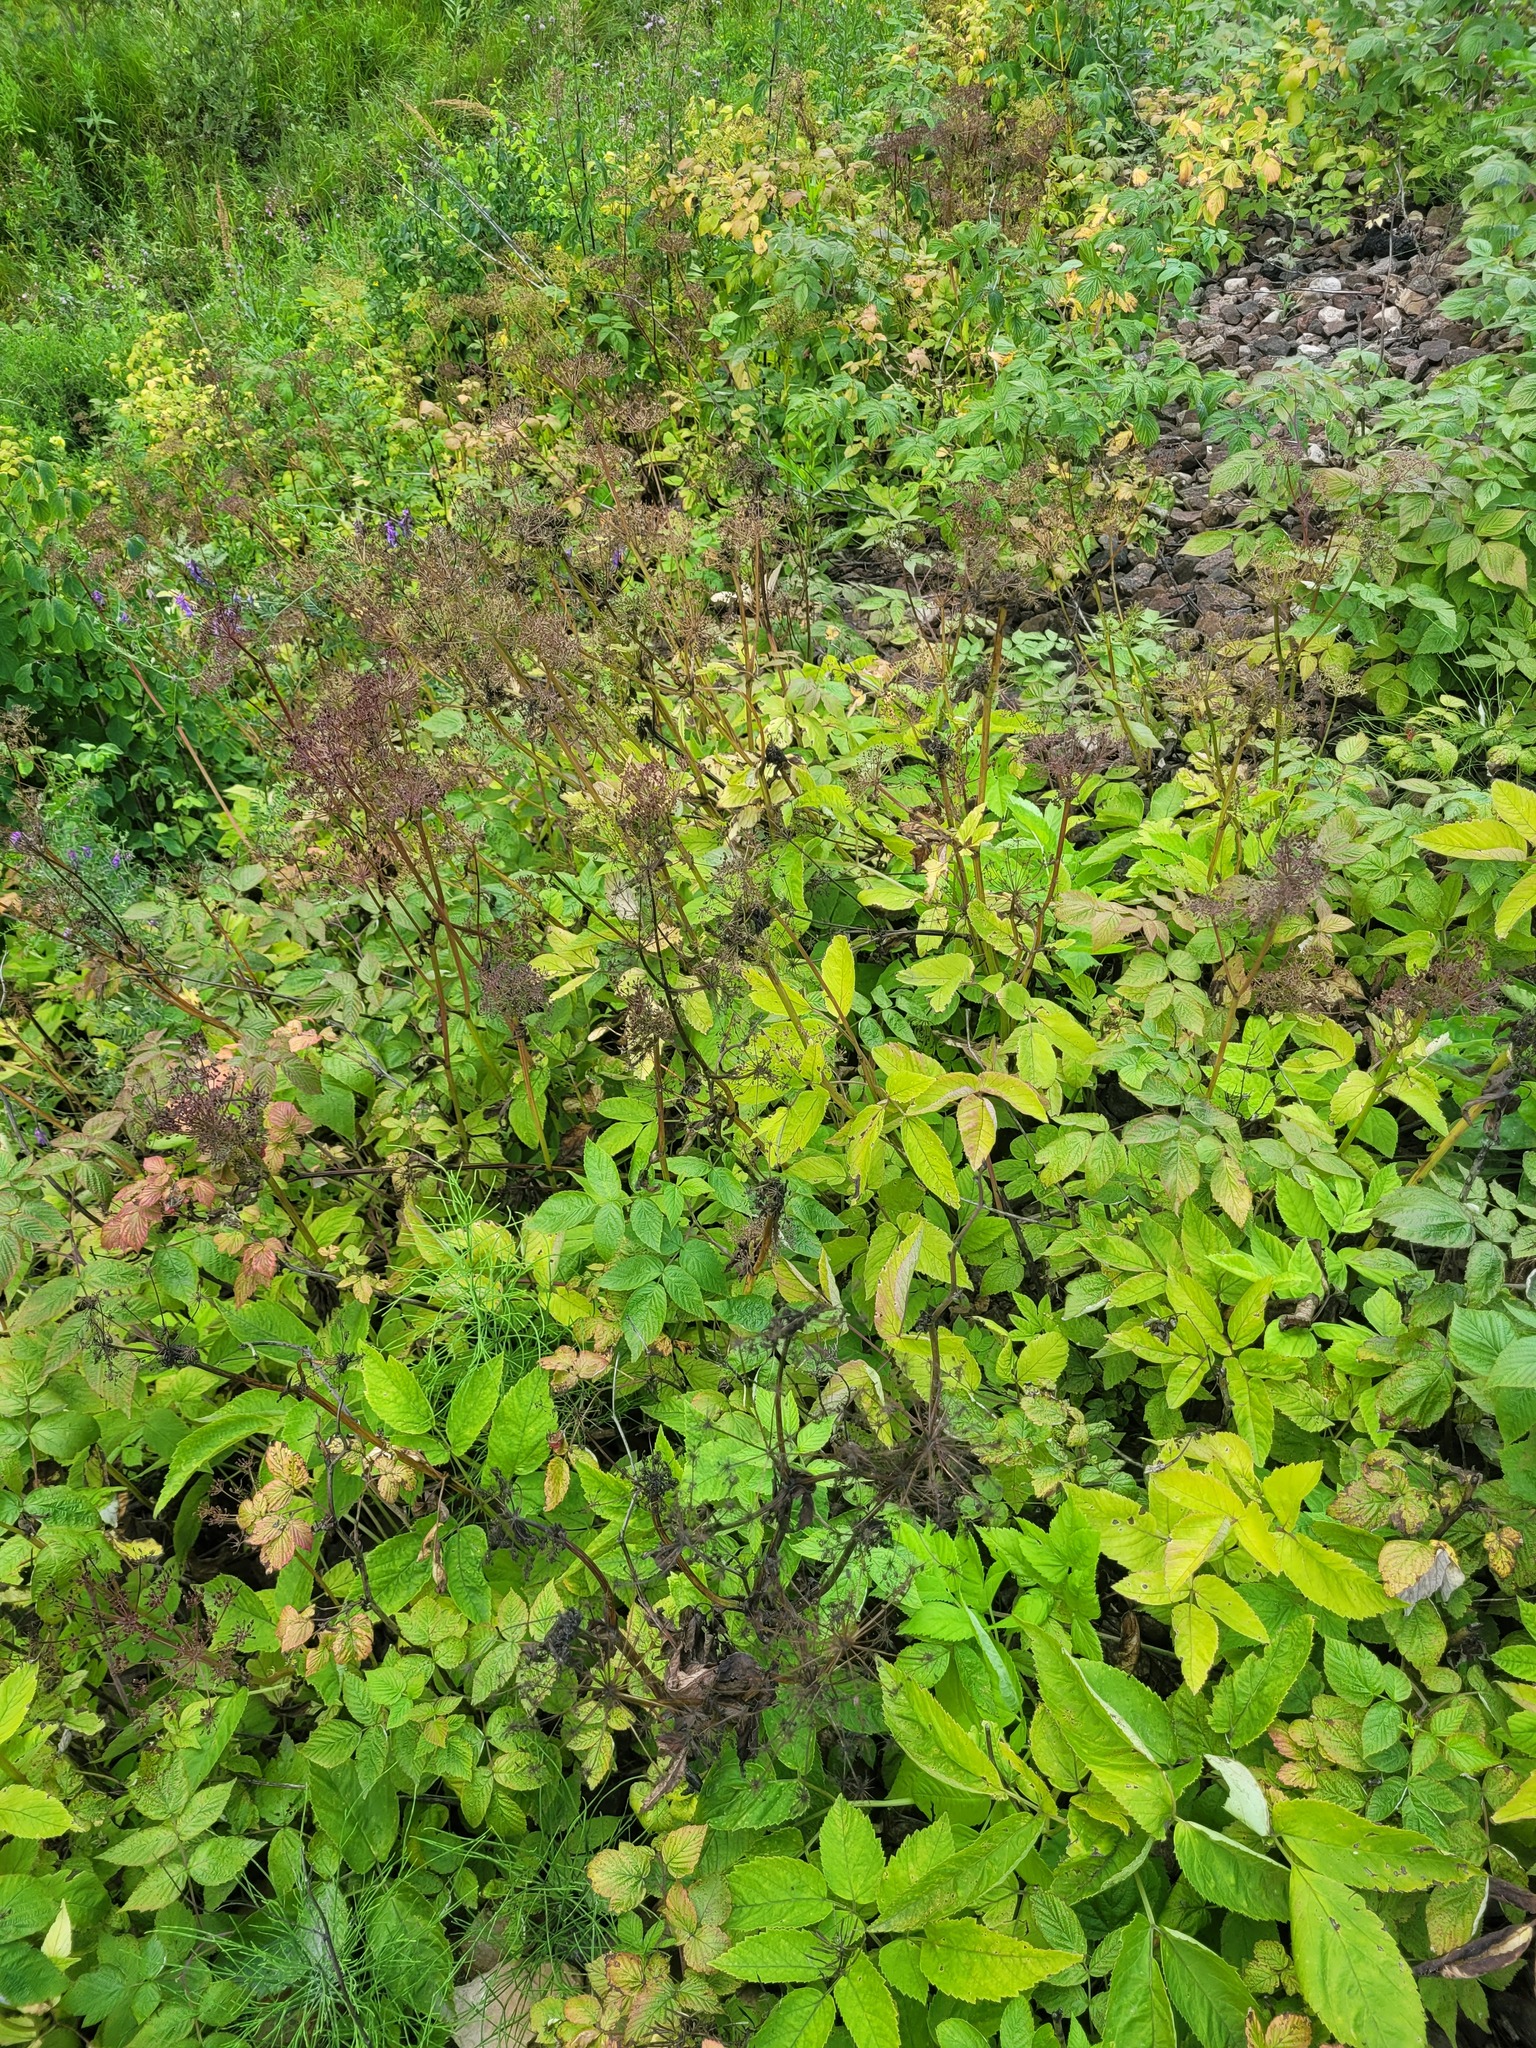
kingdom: Plantae
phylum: Tracheophyta
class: Magnoliopsida
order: Apiales
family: Apiaceae
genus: Aegopodium
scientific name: Aegopodium podagraria
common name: Ground-elder
